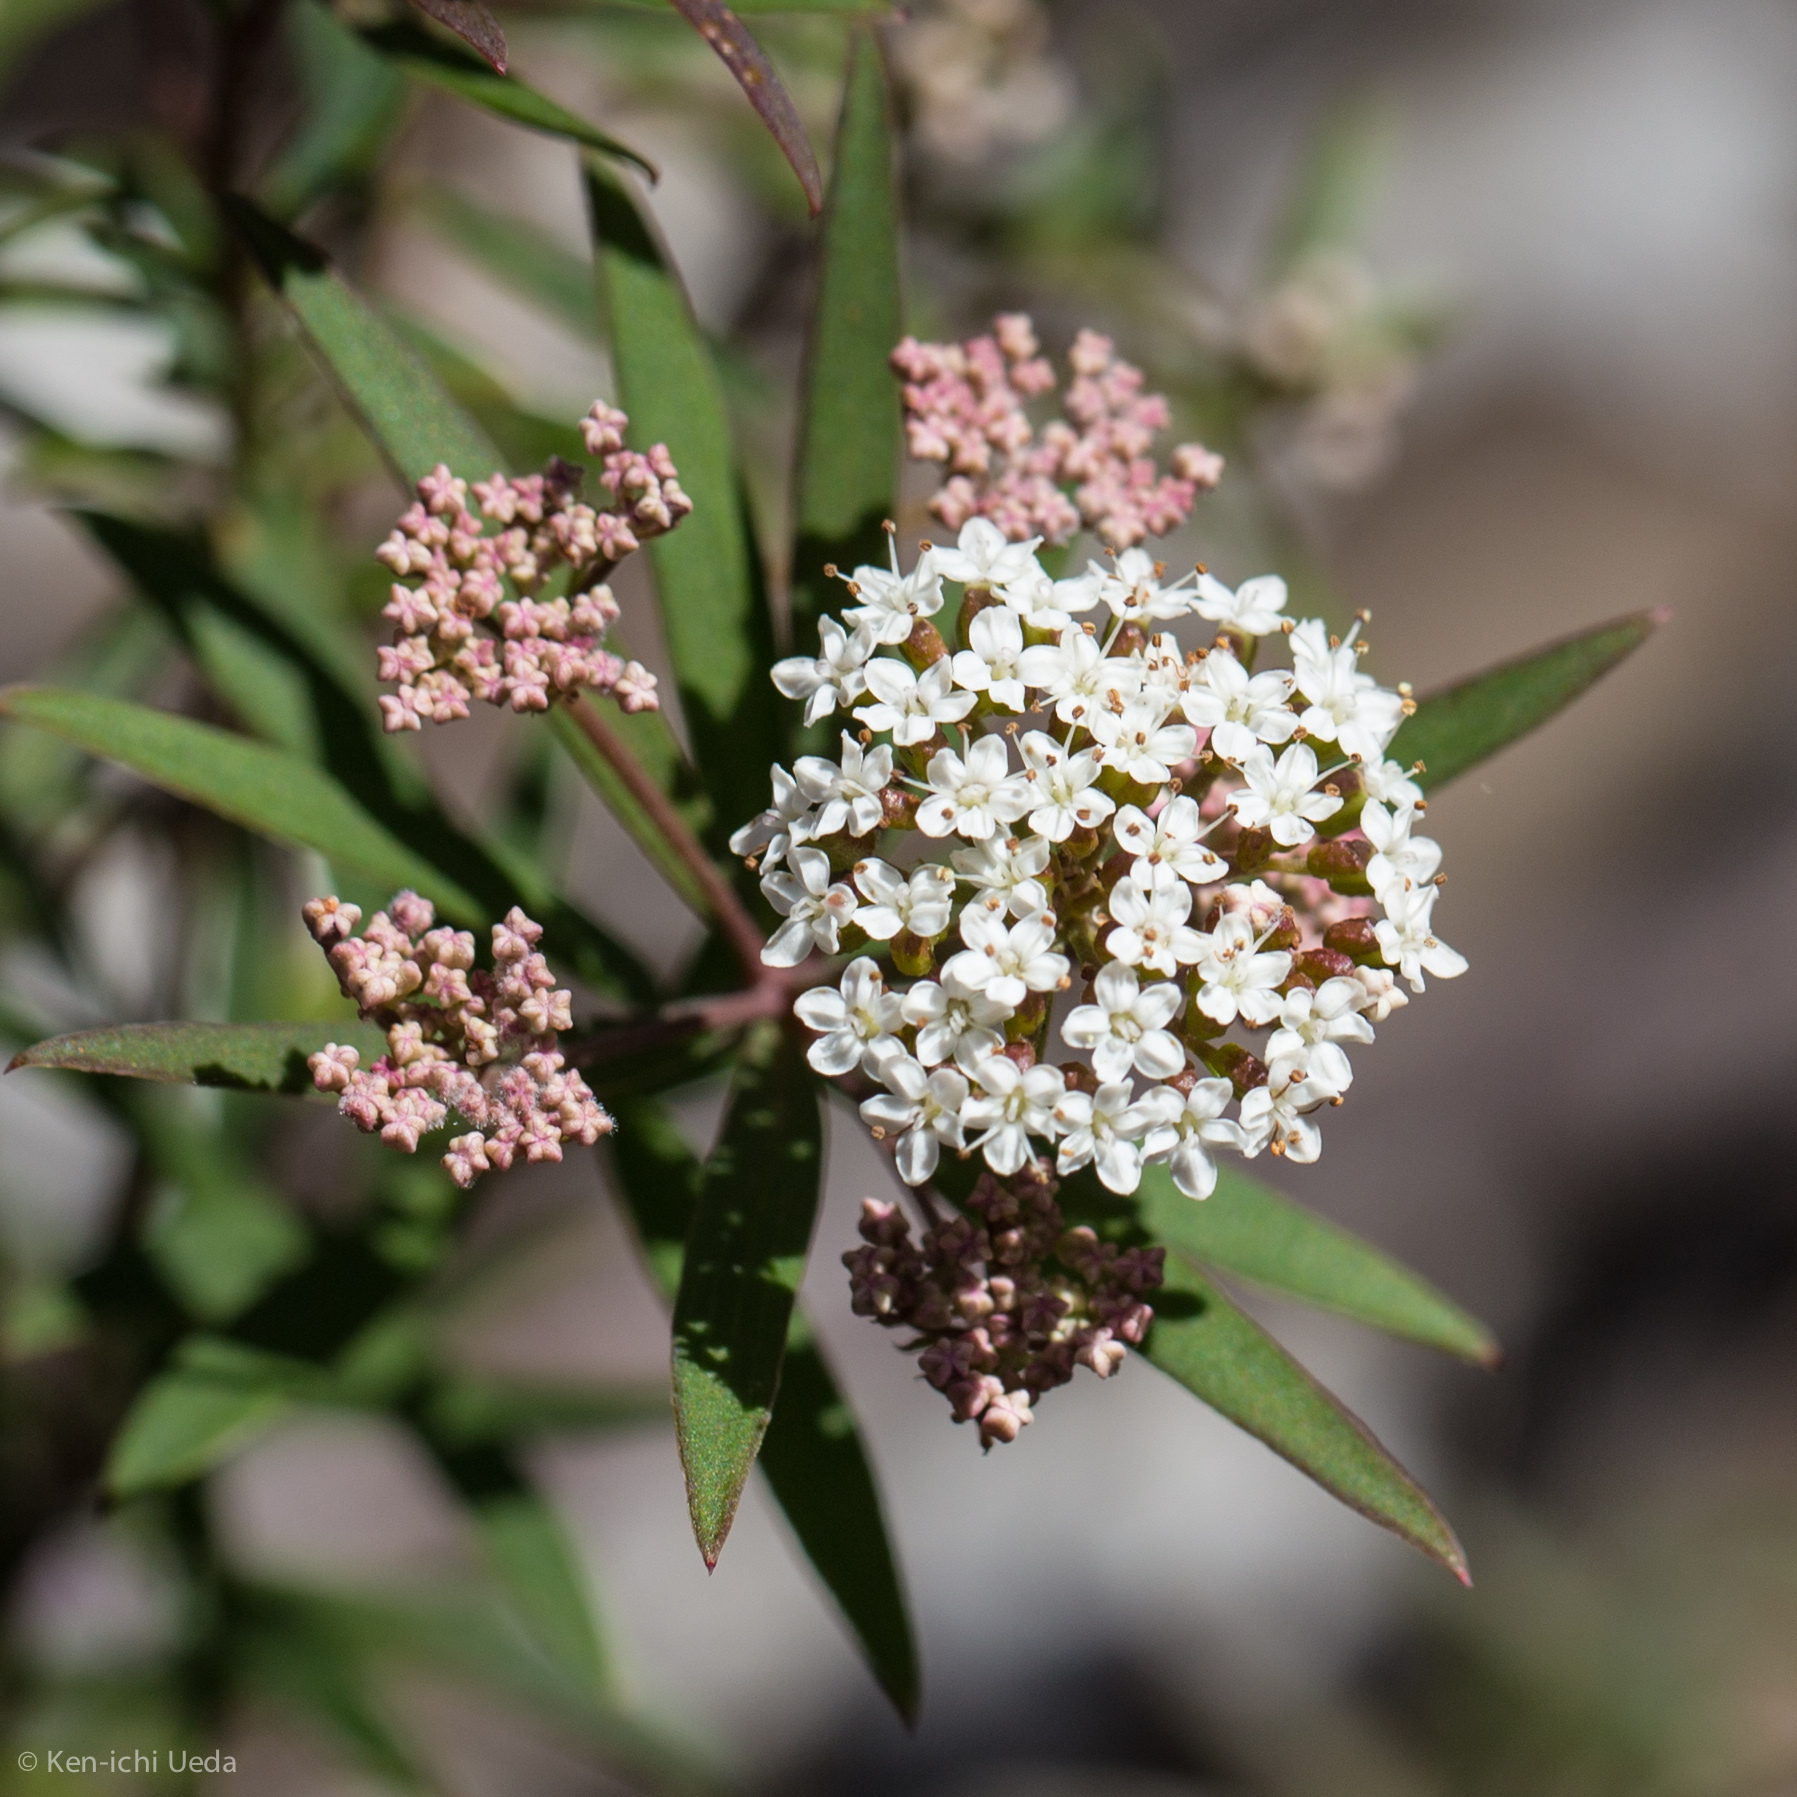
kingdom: Plantae
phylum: Tracheophyta
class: Magnoliopsida
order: Apiales
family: Apiaceae
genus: Platysace
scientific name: Platysace lanceolata
